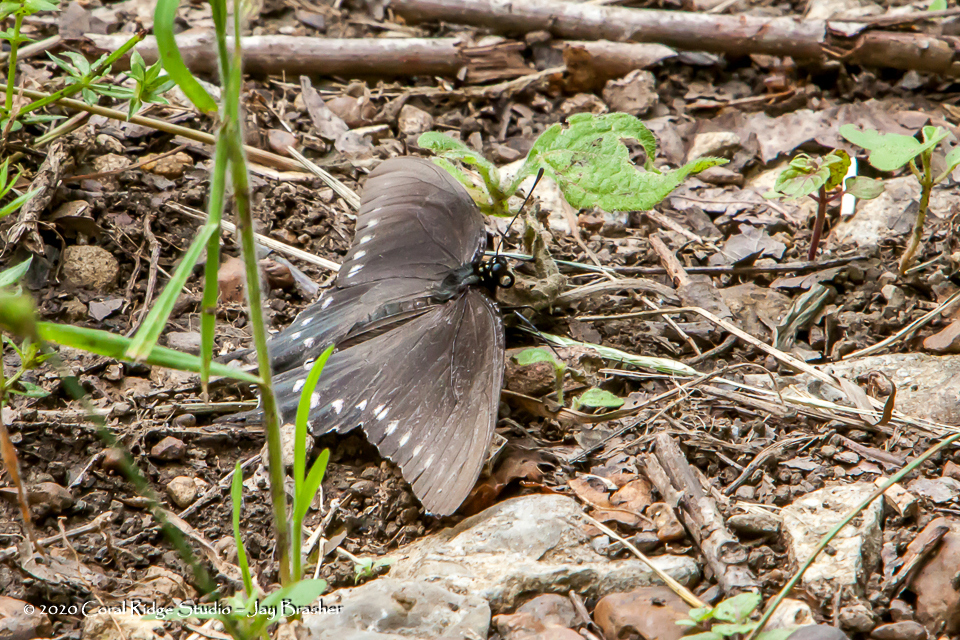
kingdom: Animalia
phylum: Arthropoda
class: Insecta
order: Lepidoptera
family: Papilionidae
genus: Battus
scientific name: Battus philenor
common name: Pipevine swallowtail
